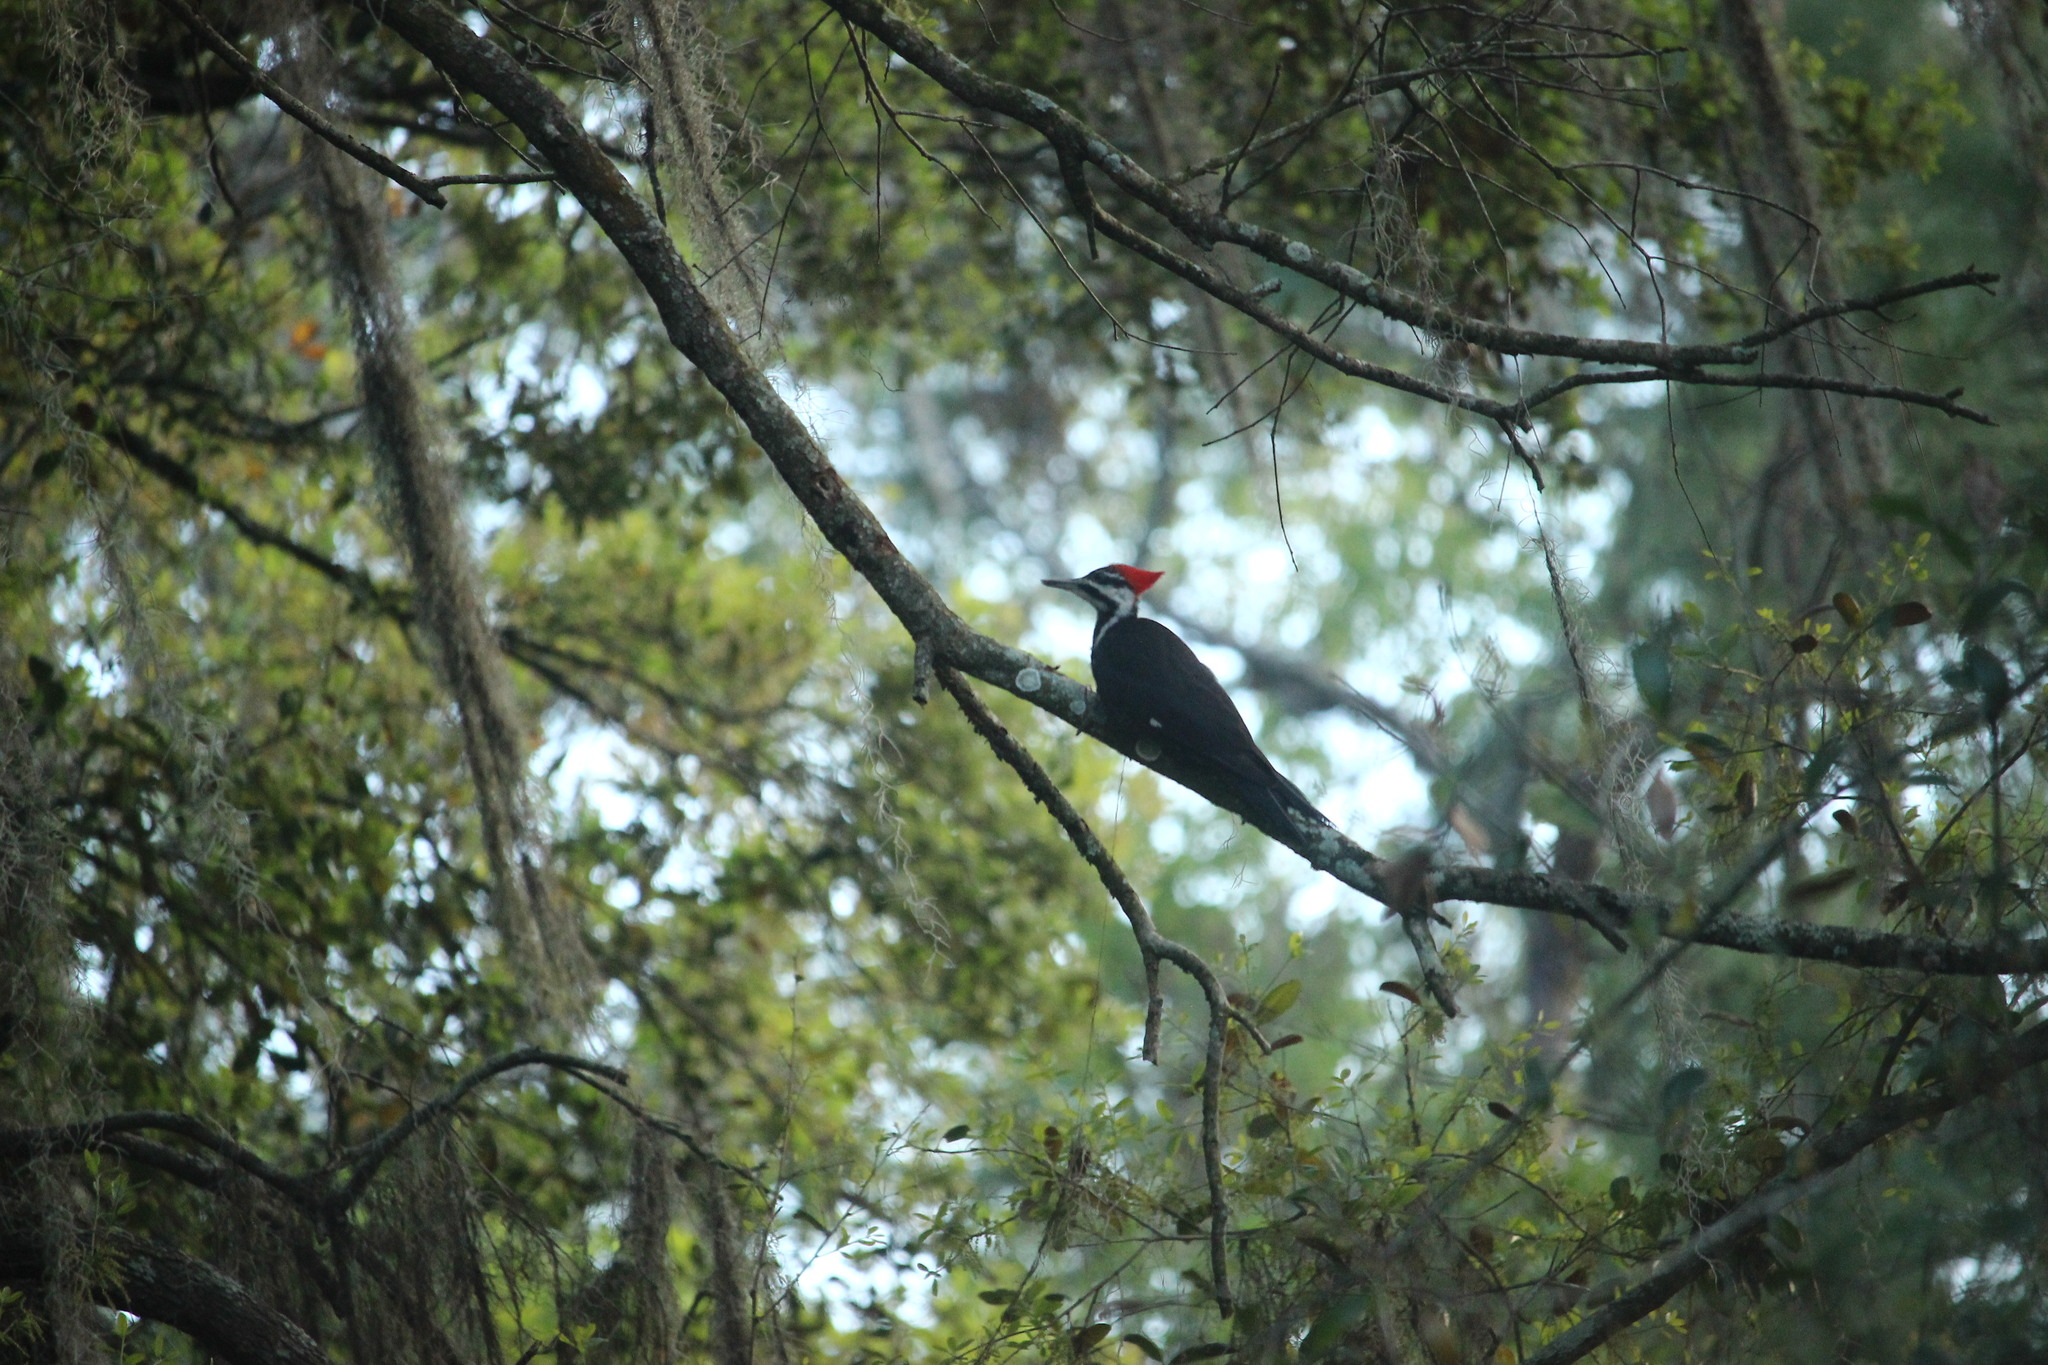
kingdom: Animalia
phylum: Chordata
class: Aves
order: Piciformes
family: Picidae
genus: Dryocopus
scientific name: Dryocopus pileatus
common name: Pileated woodpecker
